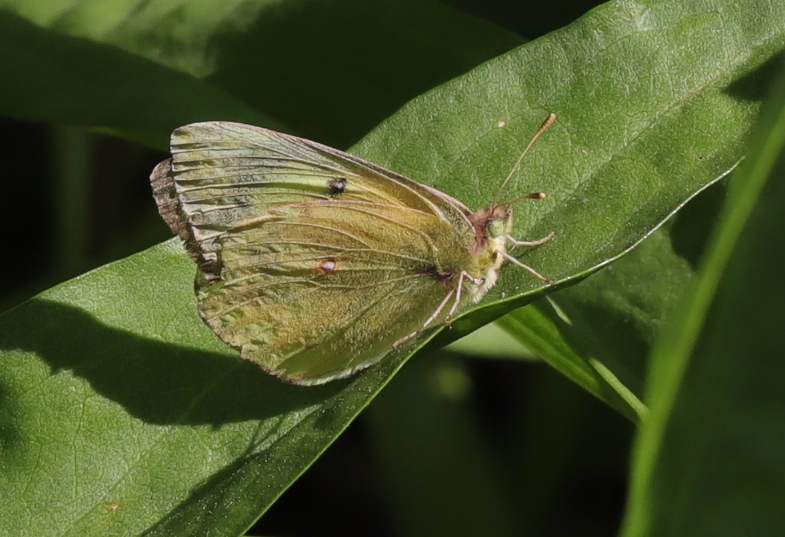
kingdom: Animalia
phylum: Arthropoda
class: Insecta
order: Lepidoptera
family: Pieridae
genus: Colias
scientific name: Colias eurytheme
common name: Alfalfa butterfly
